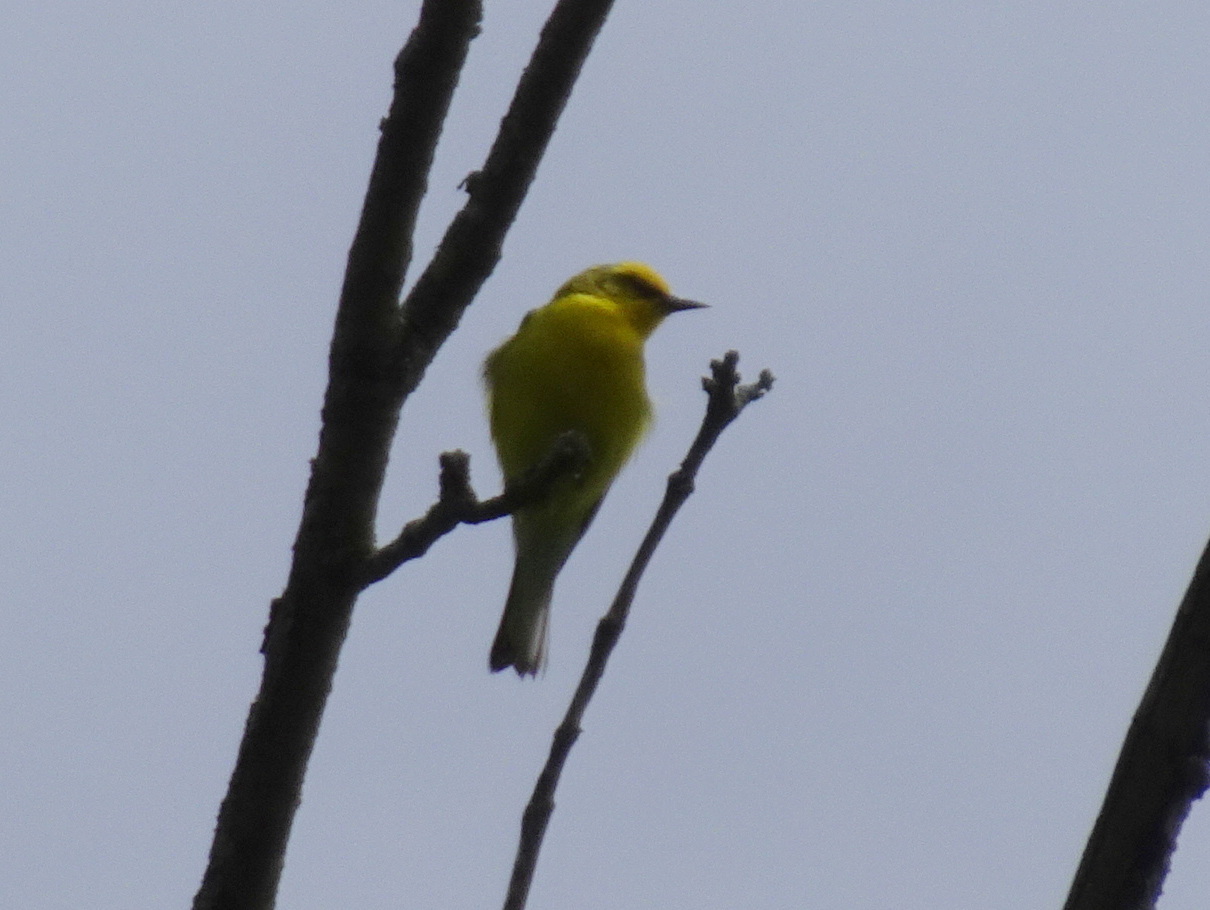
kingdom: Animalia
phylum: Chordata
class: Aves
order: Passeriformes
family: Parulidae
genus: Vermivora
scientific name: Vermivora cyanoptera
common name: Blue-winged warbler
